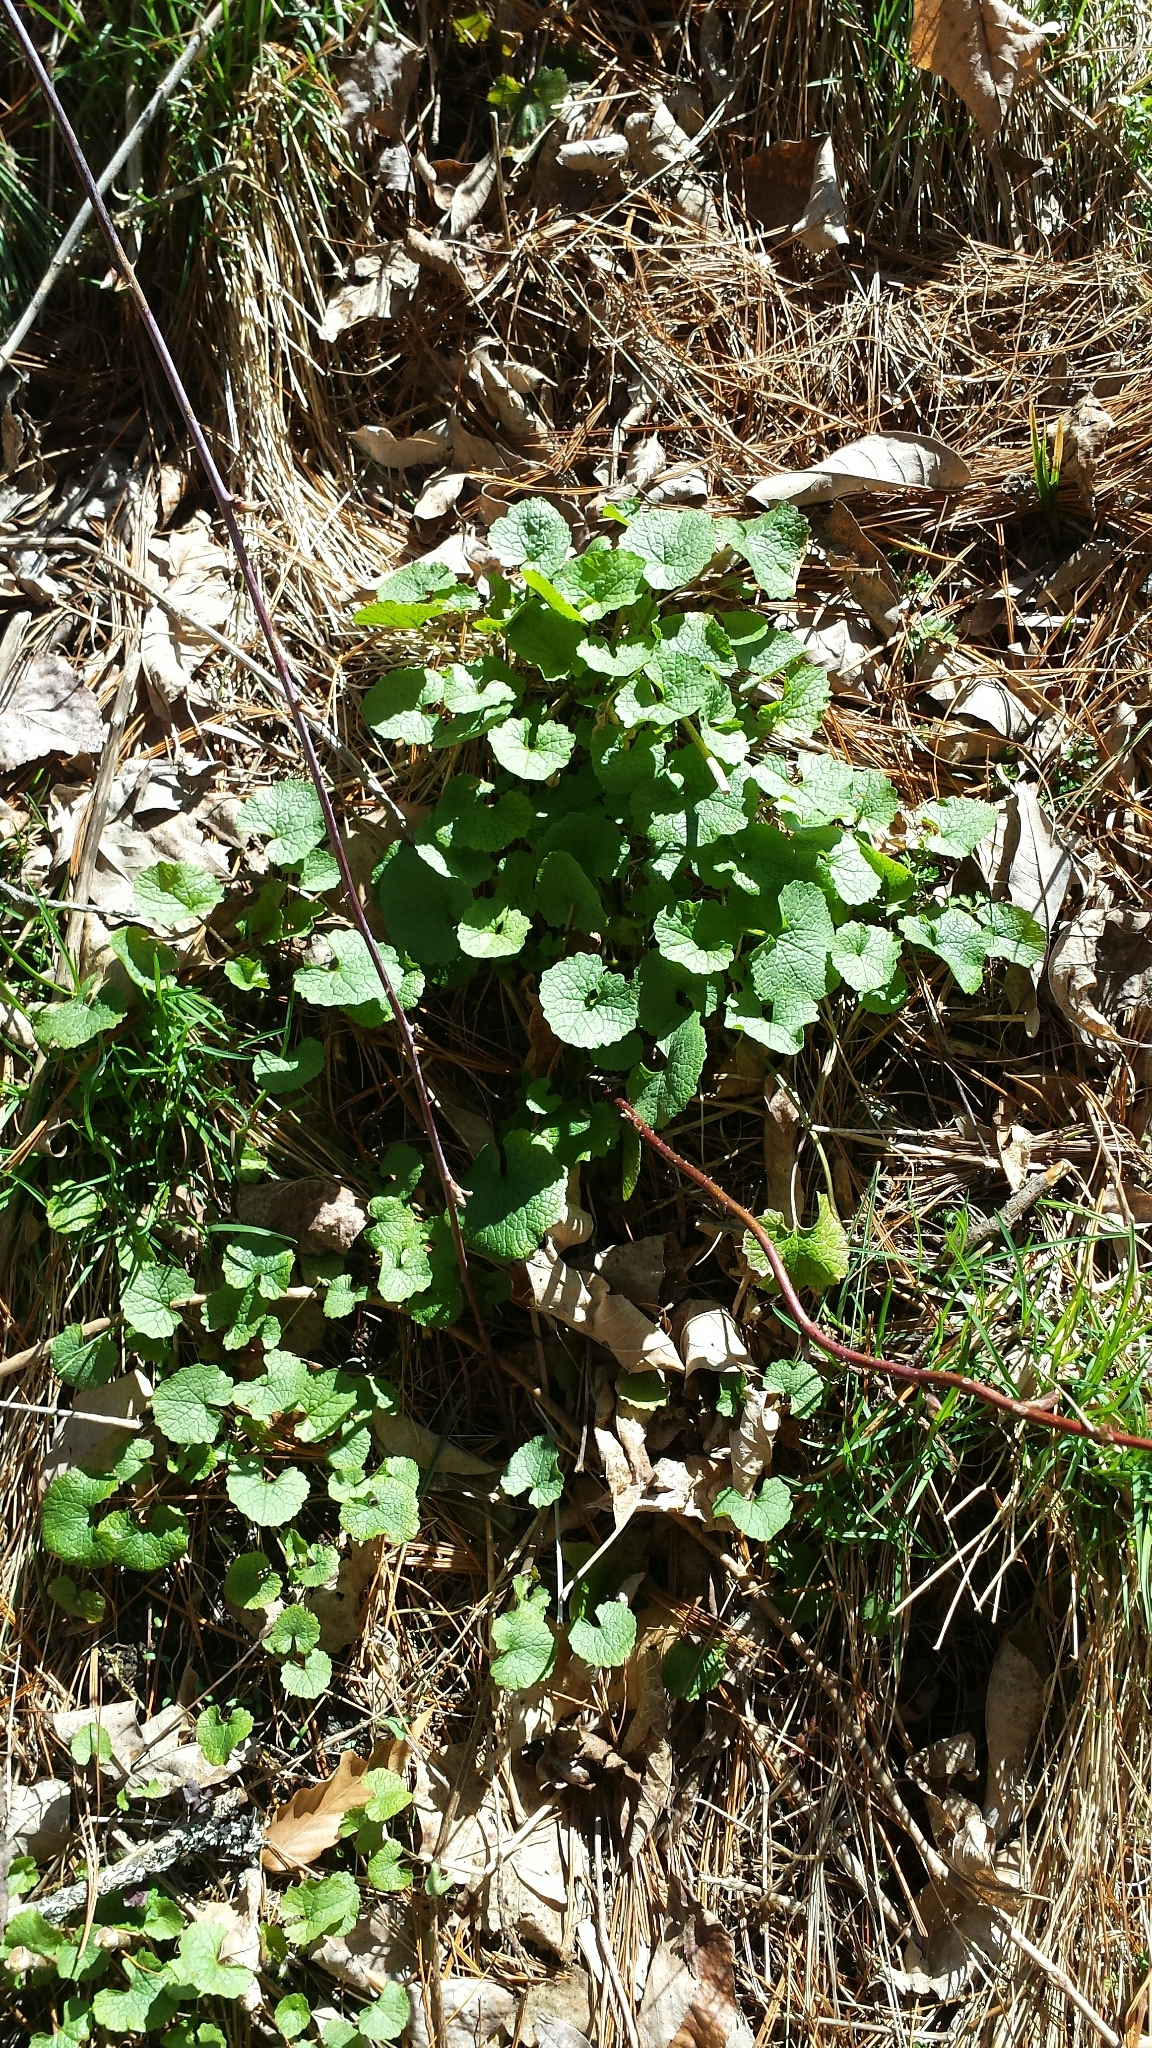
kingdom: Plantae
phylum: Tracheophyta
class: Magnoliopsida
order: Brassicales
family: Brassicaceae
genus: Alliaria
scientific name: Alliaria petiolata
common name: Garlic mustard
